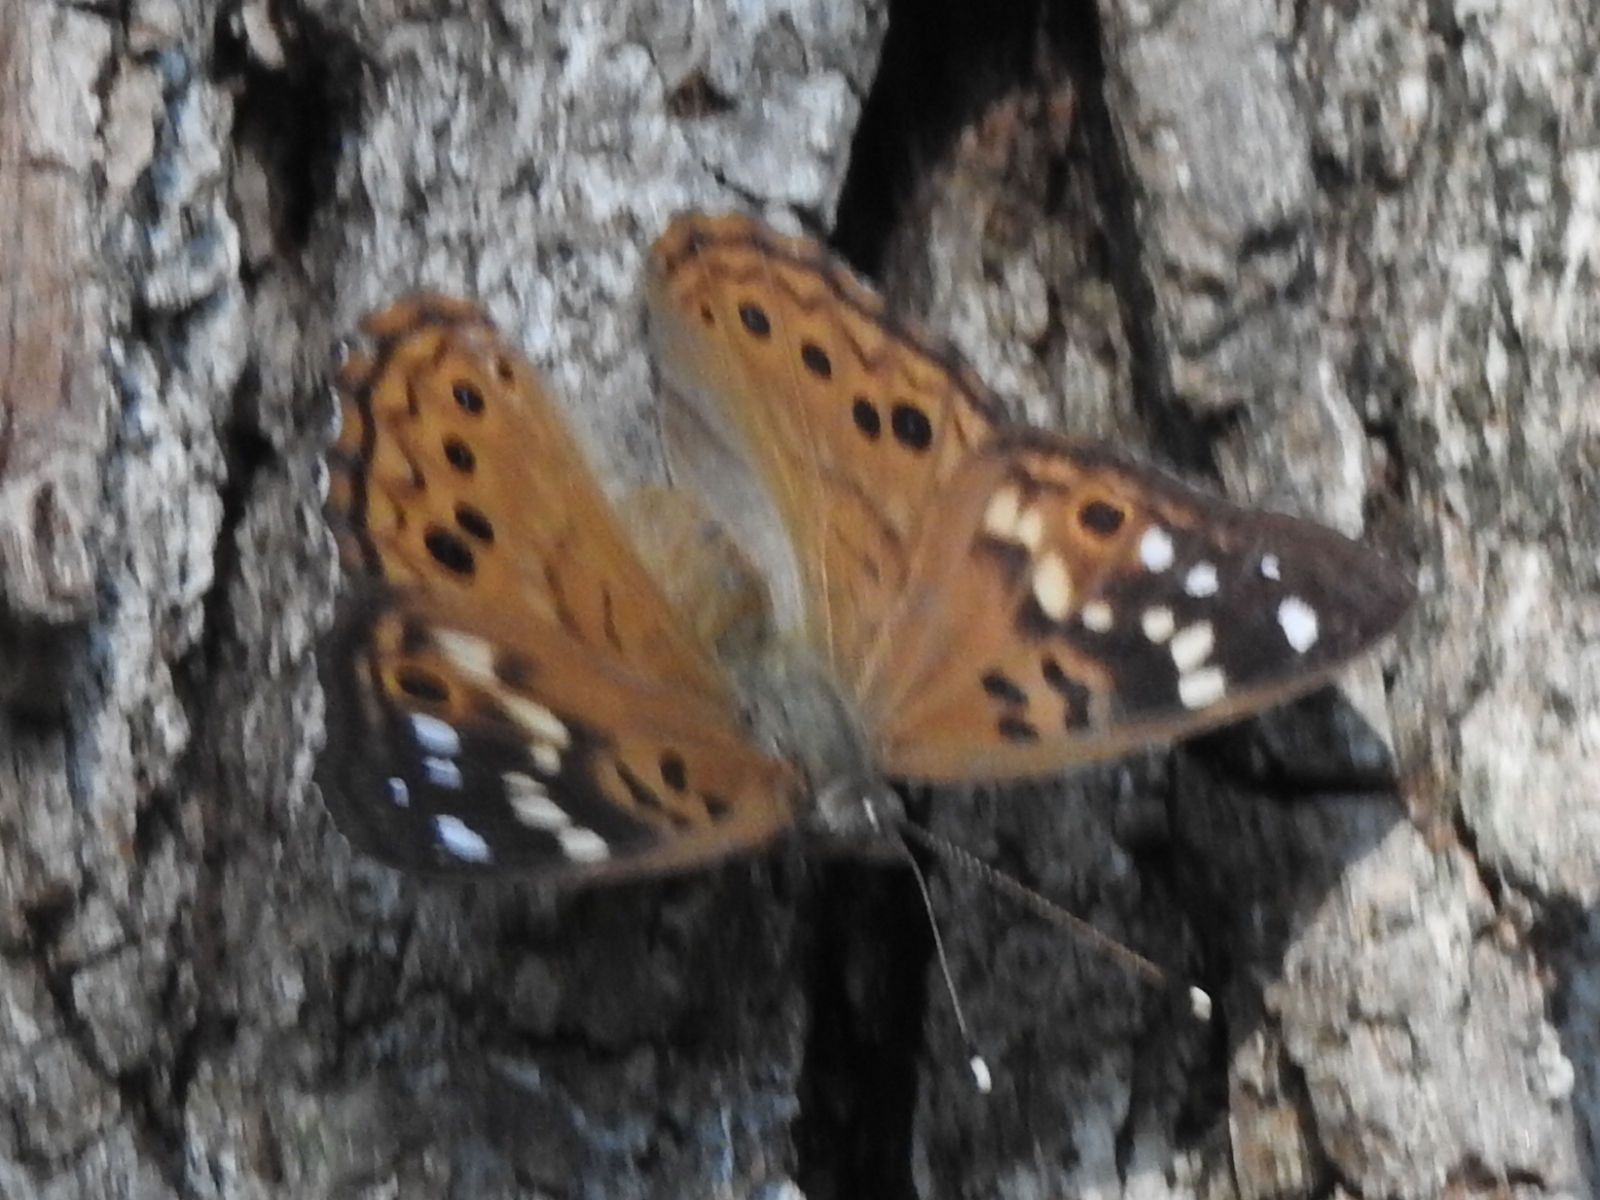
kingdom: Animalia
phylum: Arthropoda
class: Insecta
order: Lepidoptera
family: Nymphalidae
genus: Asterocampa
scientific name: Asterocampa celtis
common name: Hackberry emperor
